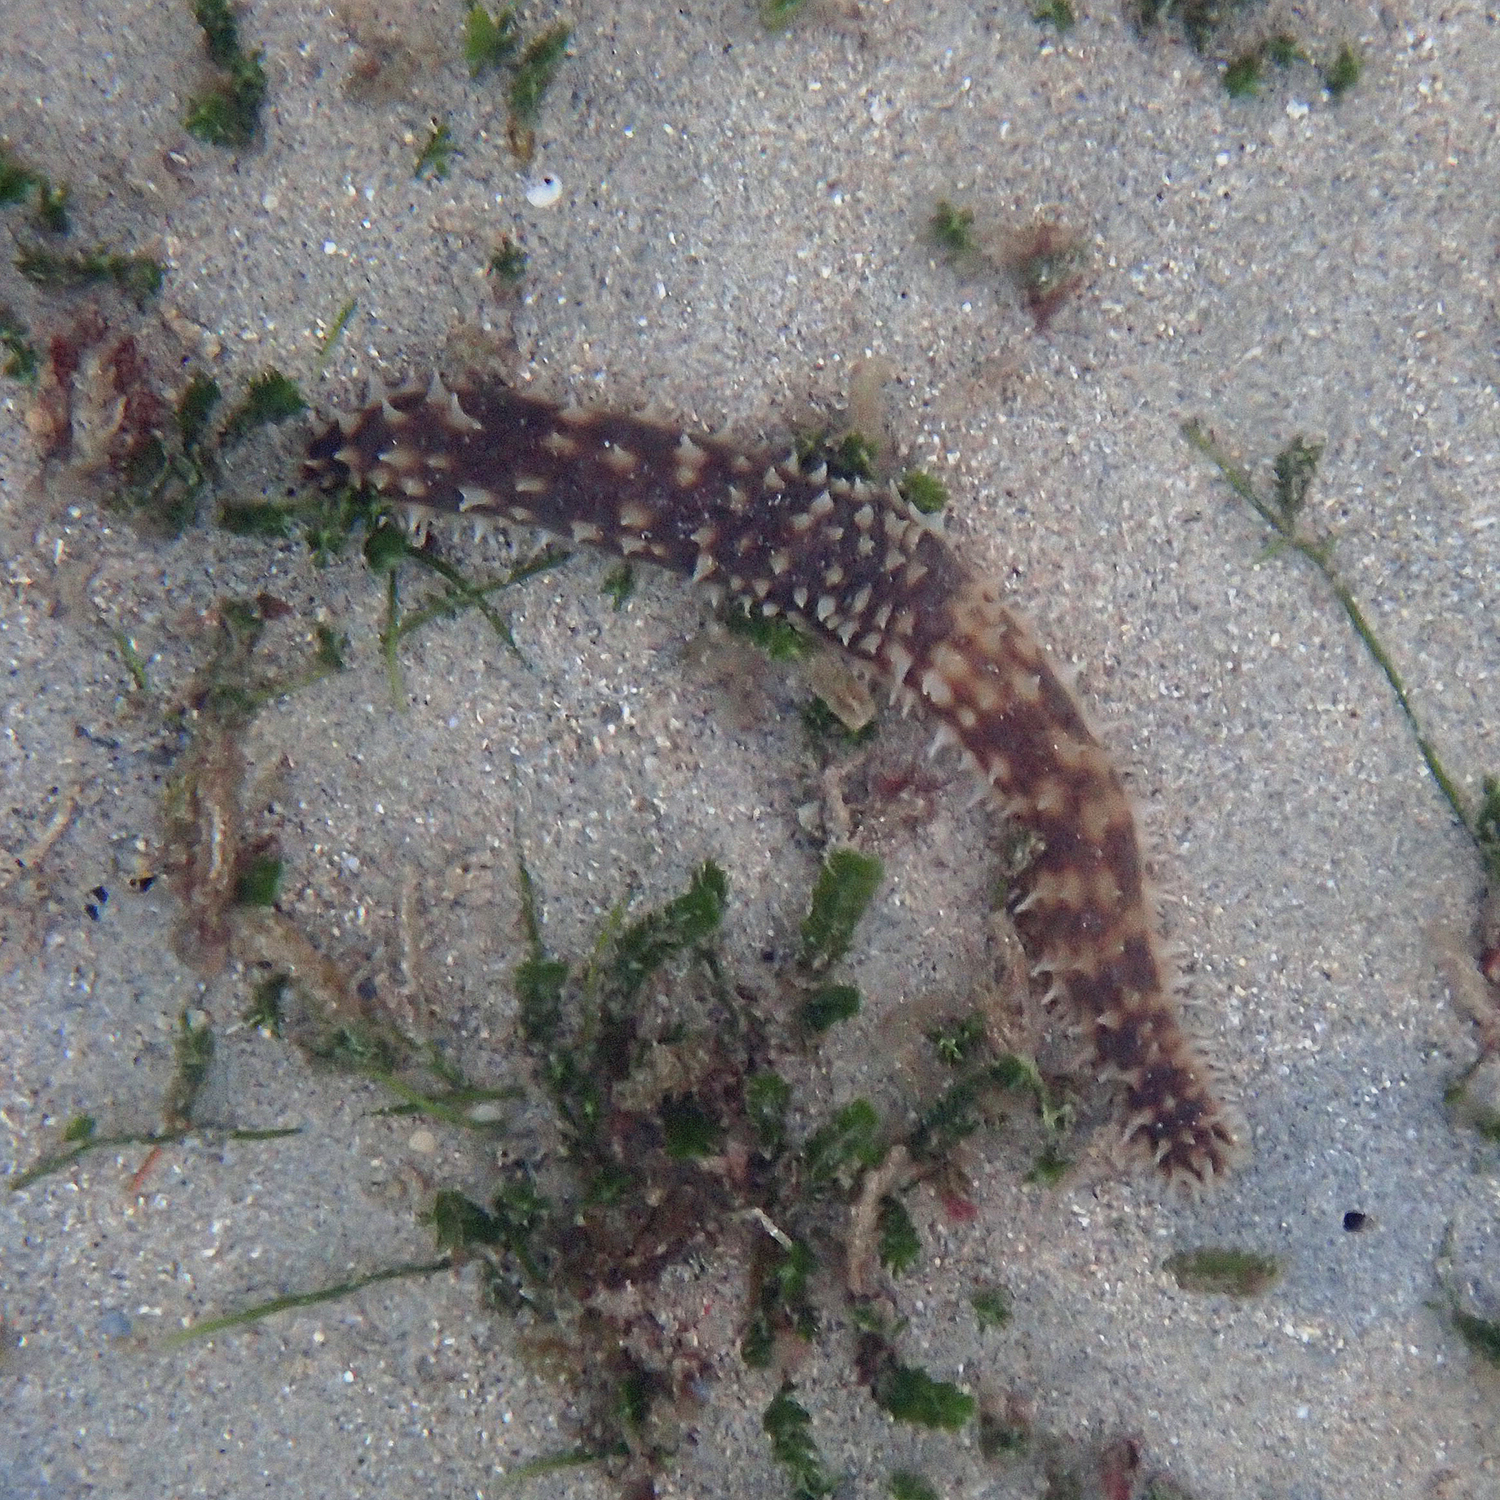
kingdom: Animalia
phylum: Echinodermata
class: Holothuroidea
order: Holothuriida
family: Holothuriidae
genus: Holothuria
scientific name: Holothuria hilla
